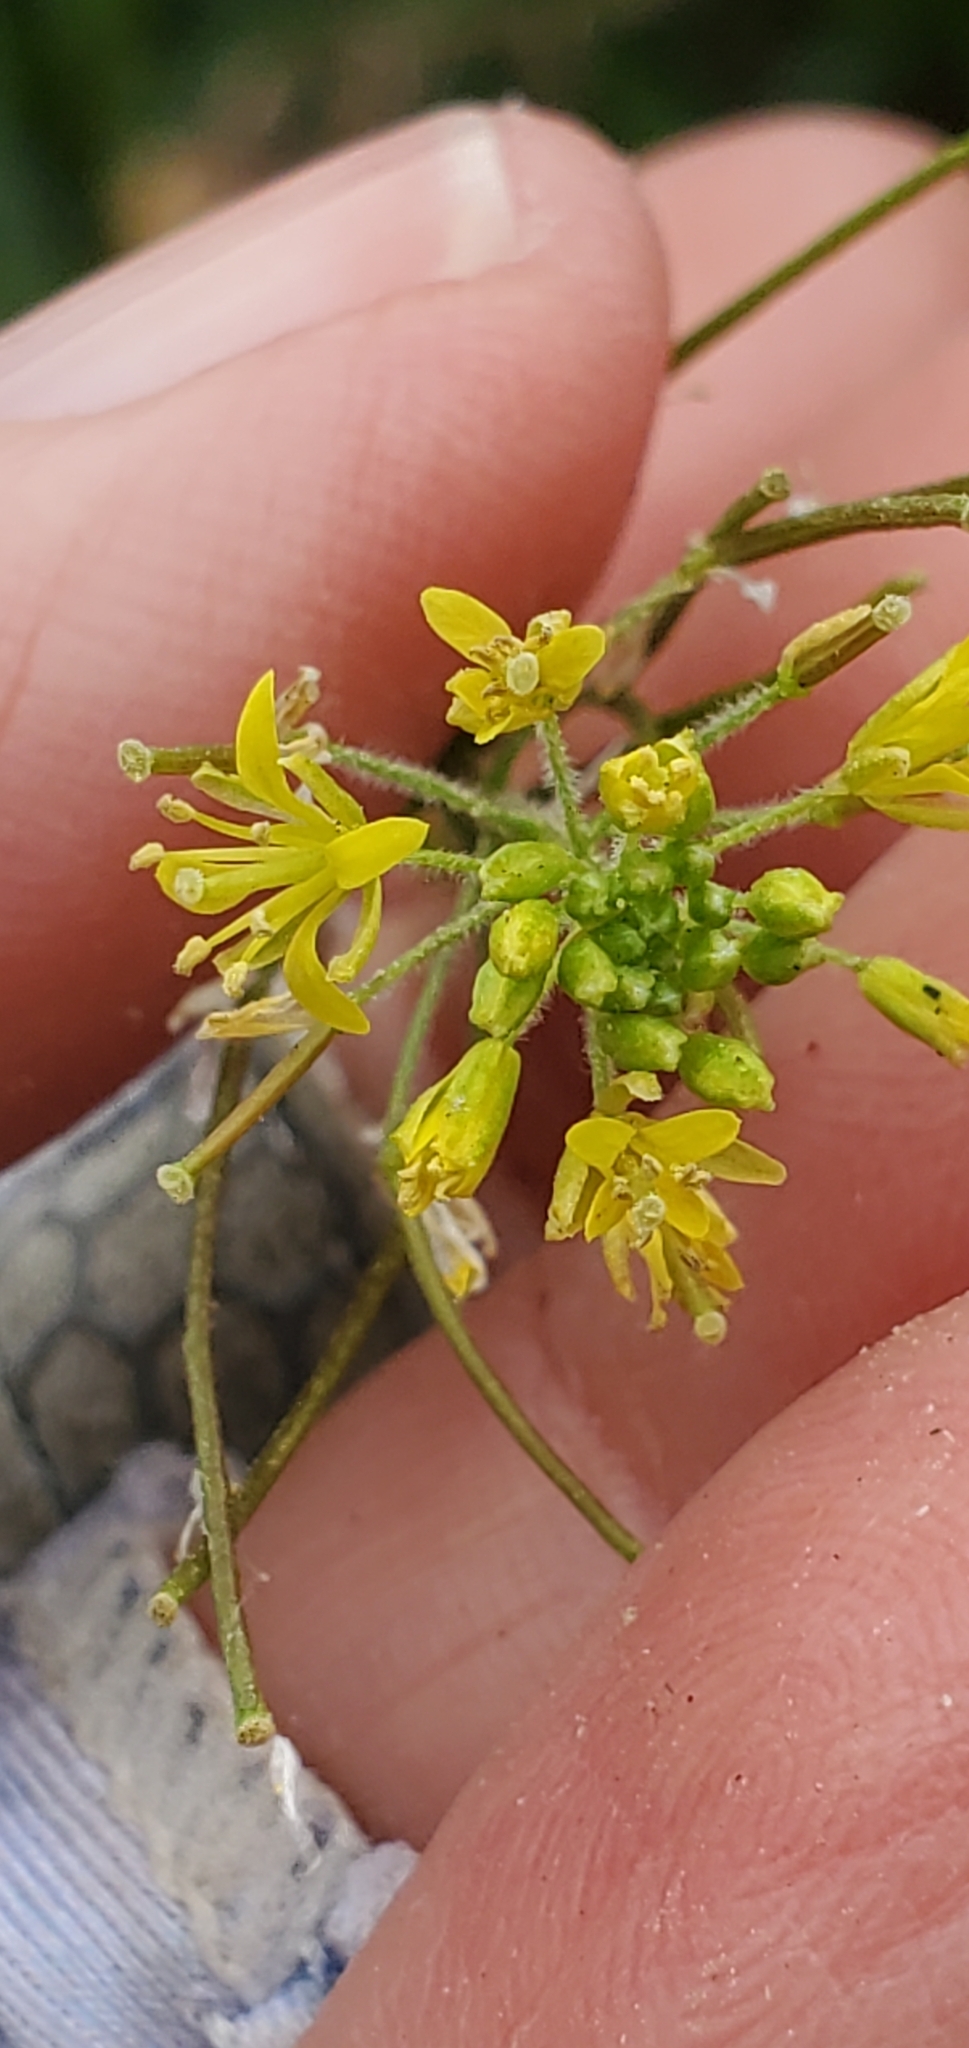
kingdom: Plantae
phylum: Tracheophyta
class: Magnoliopsida
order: Brassicales
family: Brassicaceae
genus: Sisymbrium
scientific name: Sisymbrium irio
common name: London rocket
